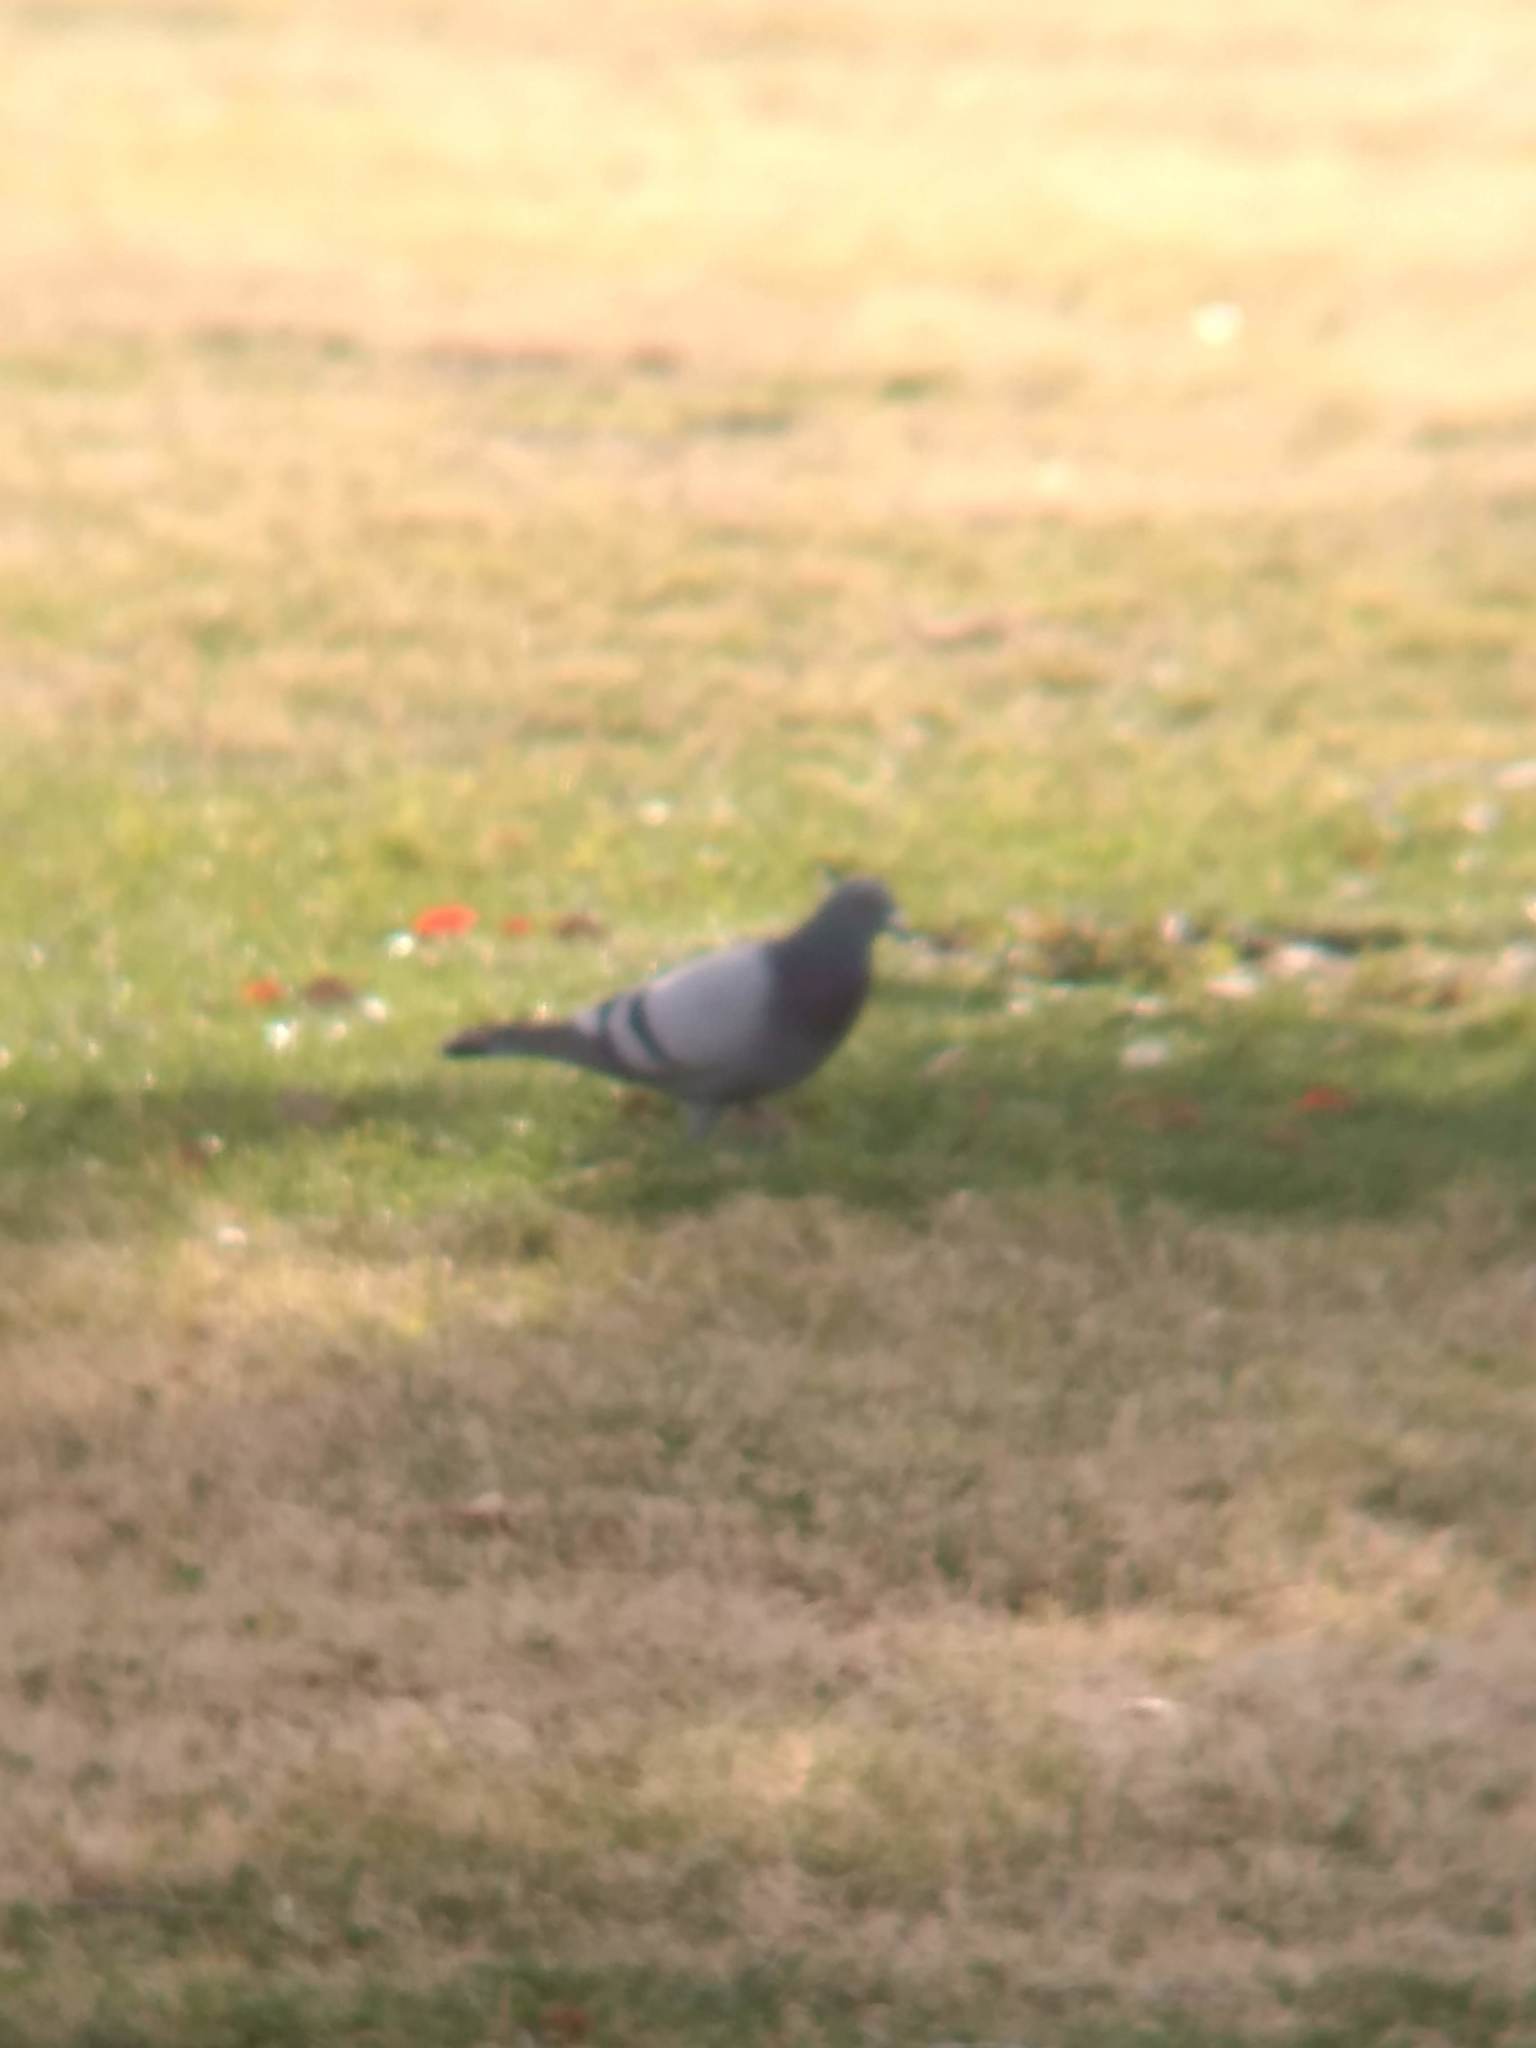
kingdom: Animalia
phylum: Chordata
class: Aves
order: Columbiformes
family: Columbidae
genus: Columba
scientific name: Columba livia
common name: Rock pigeon
